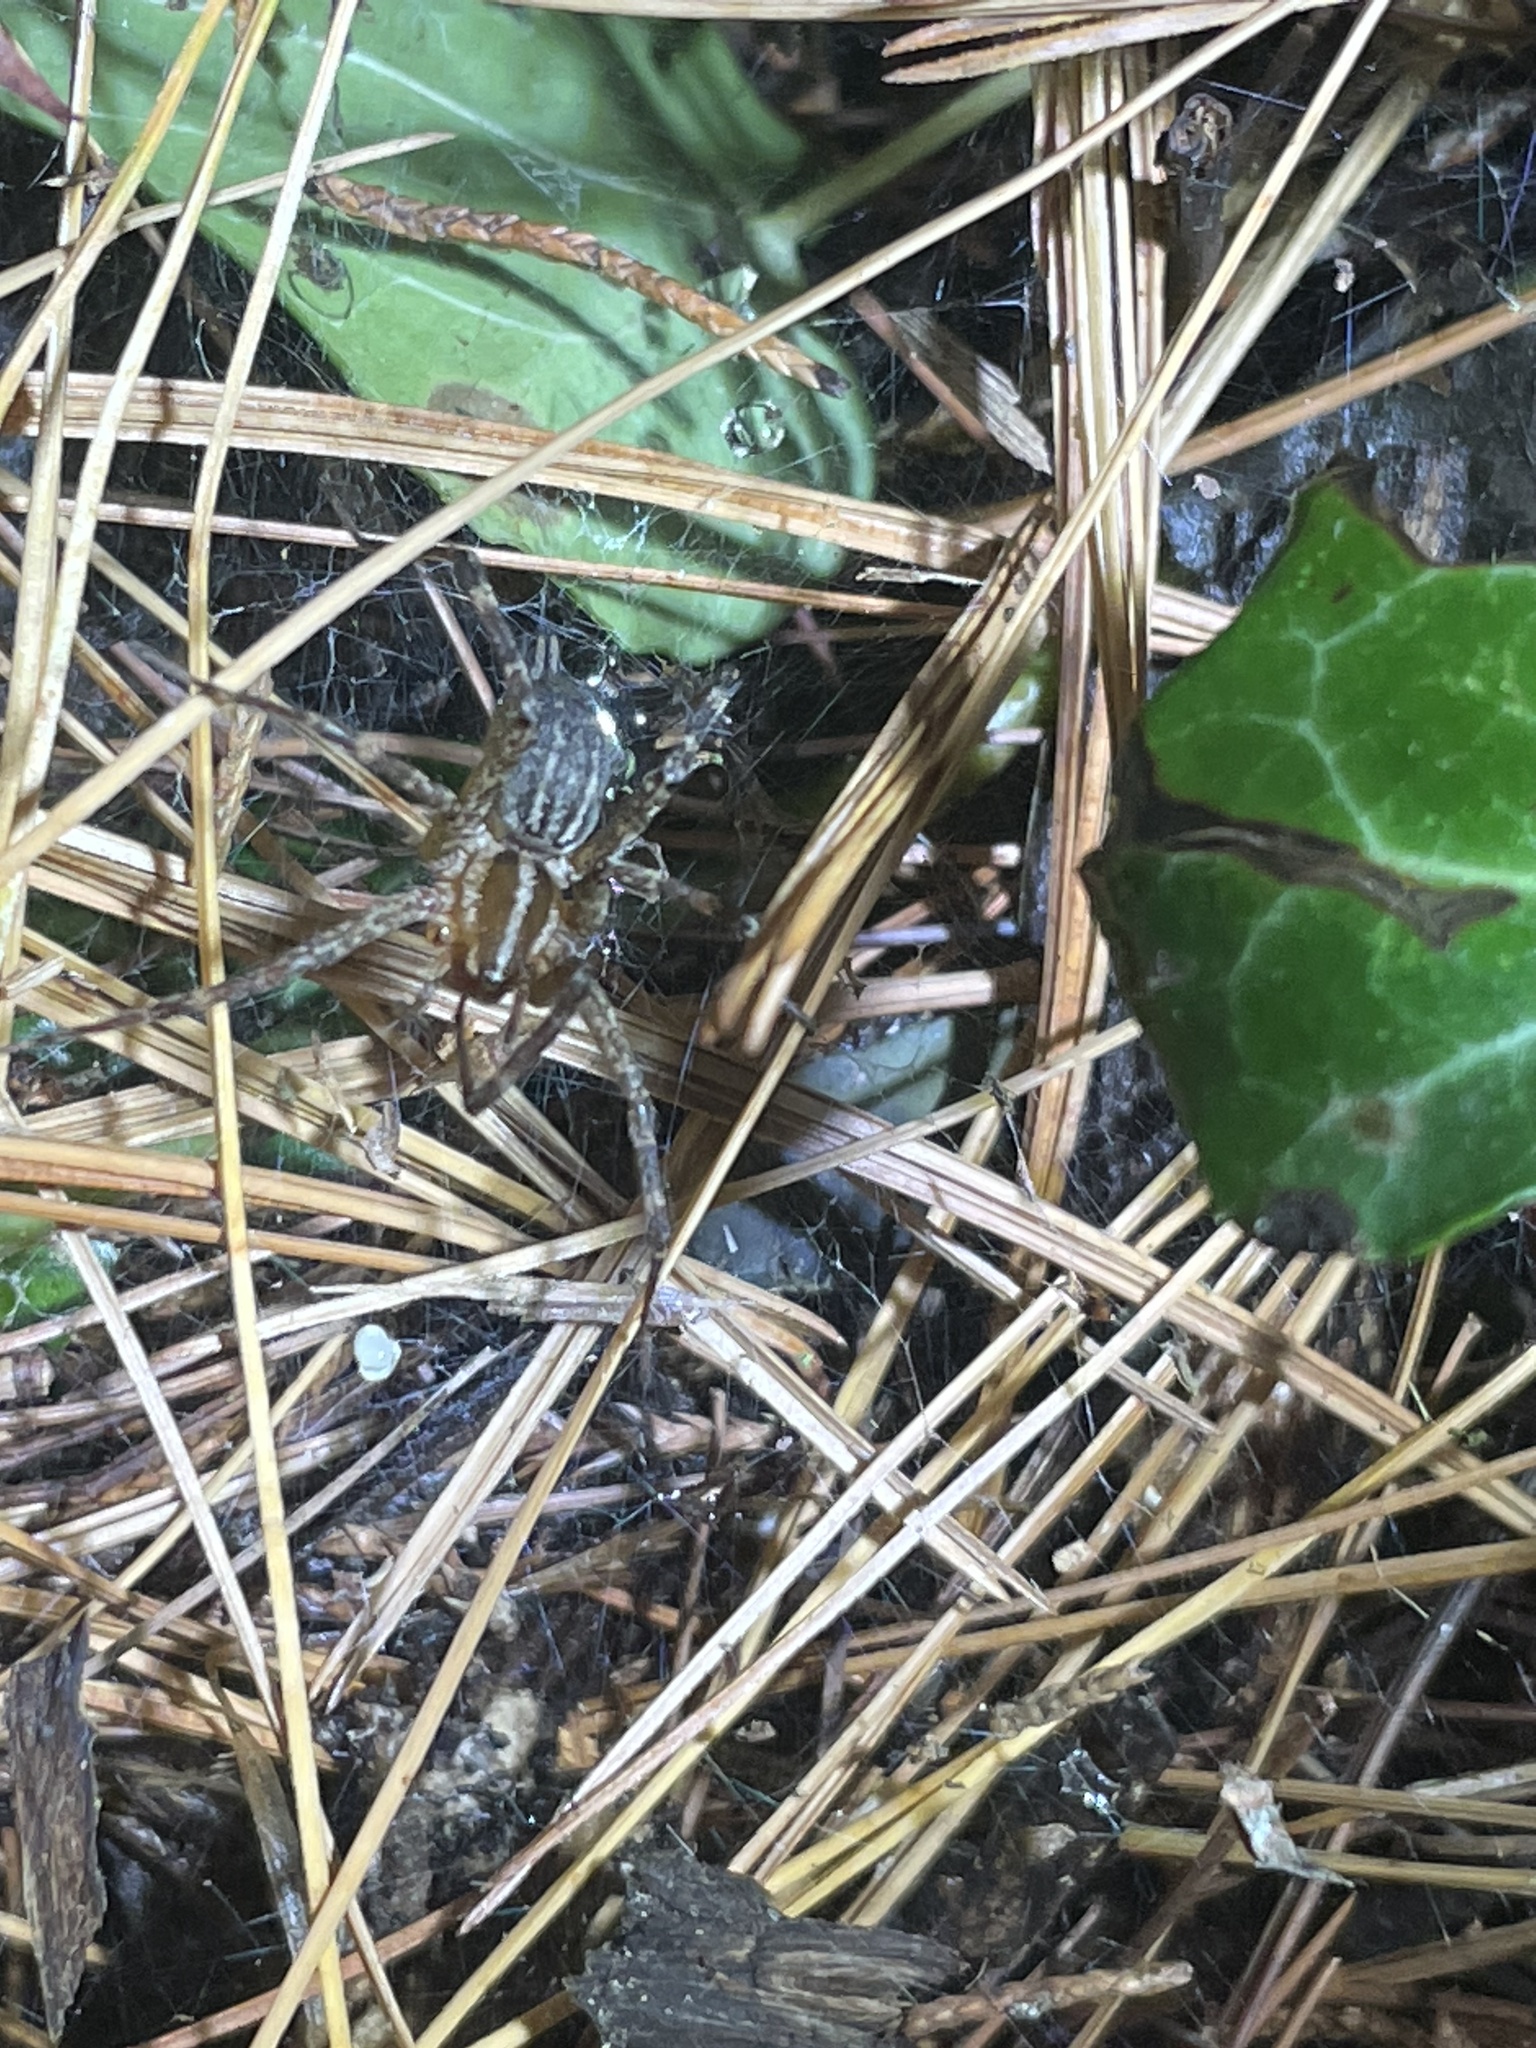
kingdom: Animalia
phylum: Arthropoda
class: Arachnida
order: Araneae
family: Agelenidae
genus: Agelenopsis
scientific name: Agelenopsis
